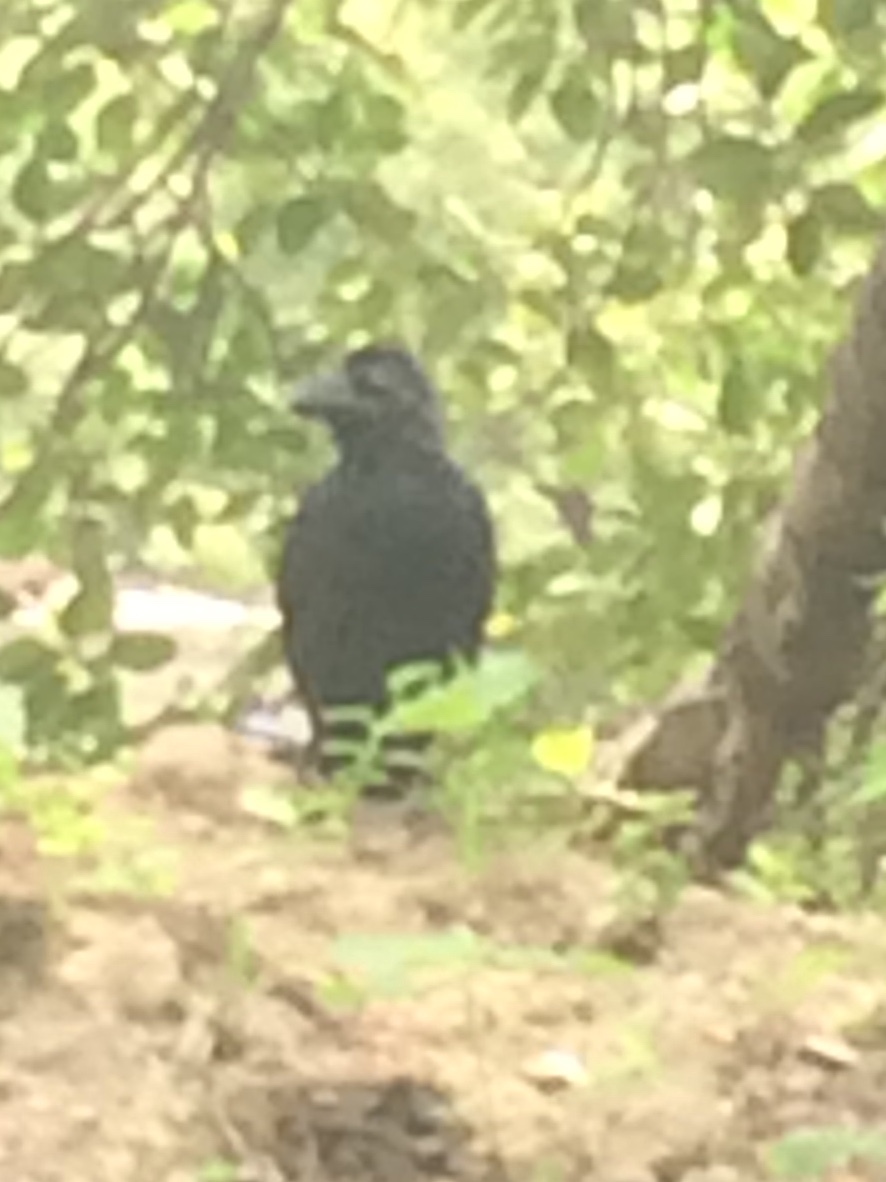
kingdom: Animalia
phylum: Chordata
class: Aves
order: Passeriformes
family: Corvidae
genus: Corvus
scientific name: Corvus macrorhynchos
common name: Large-billed crow
